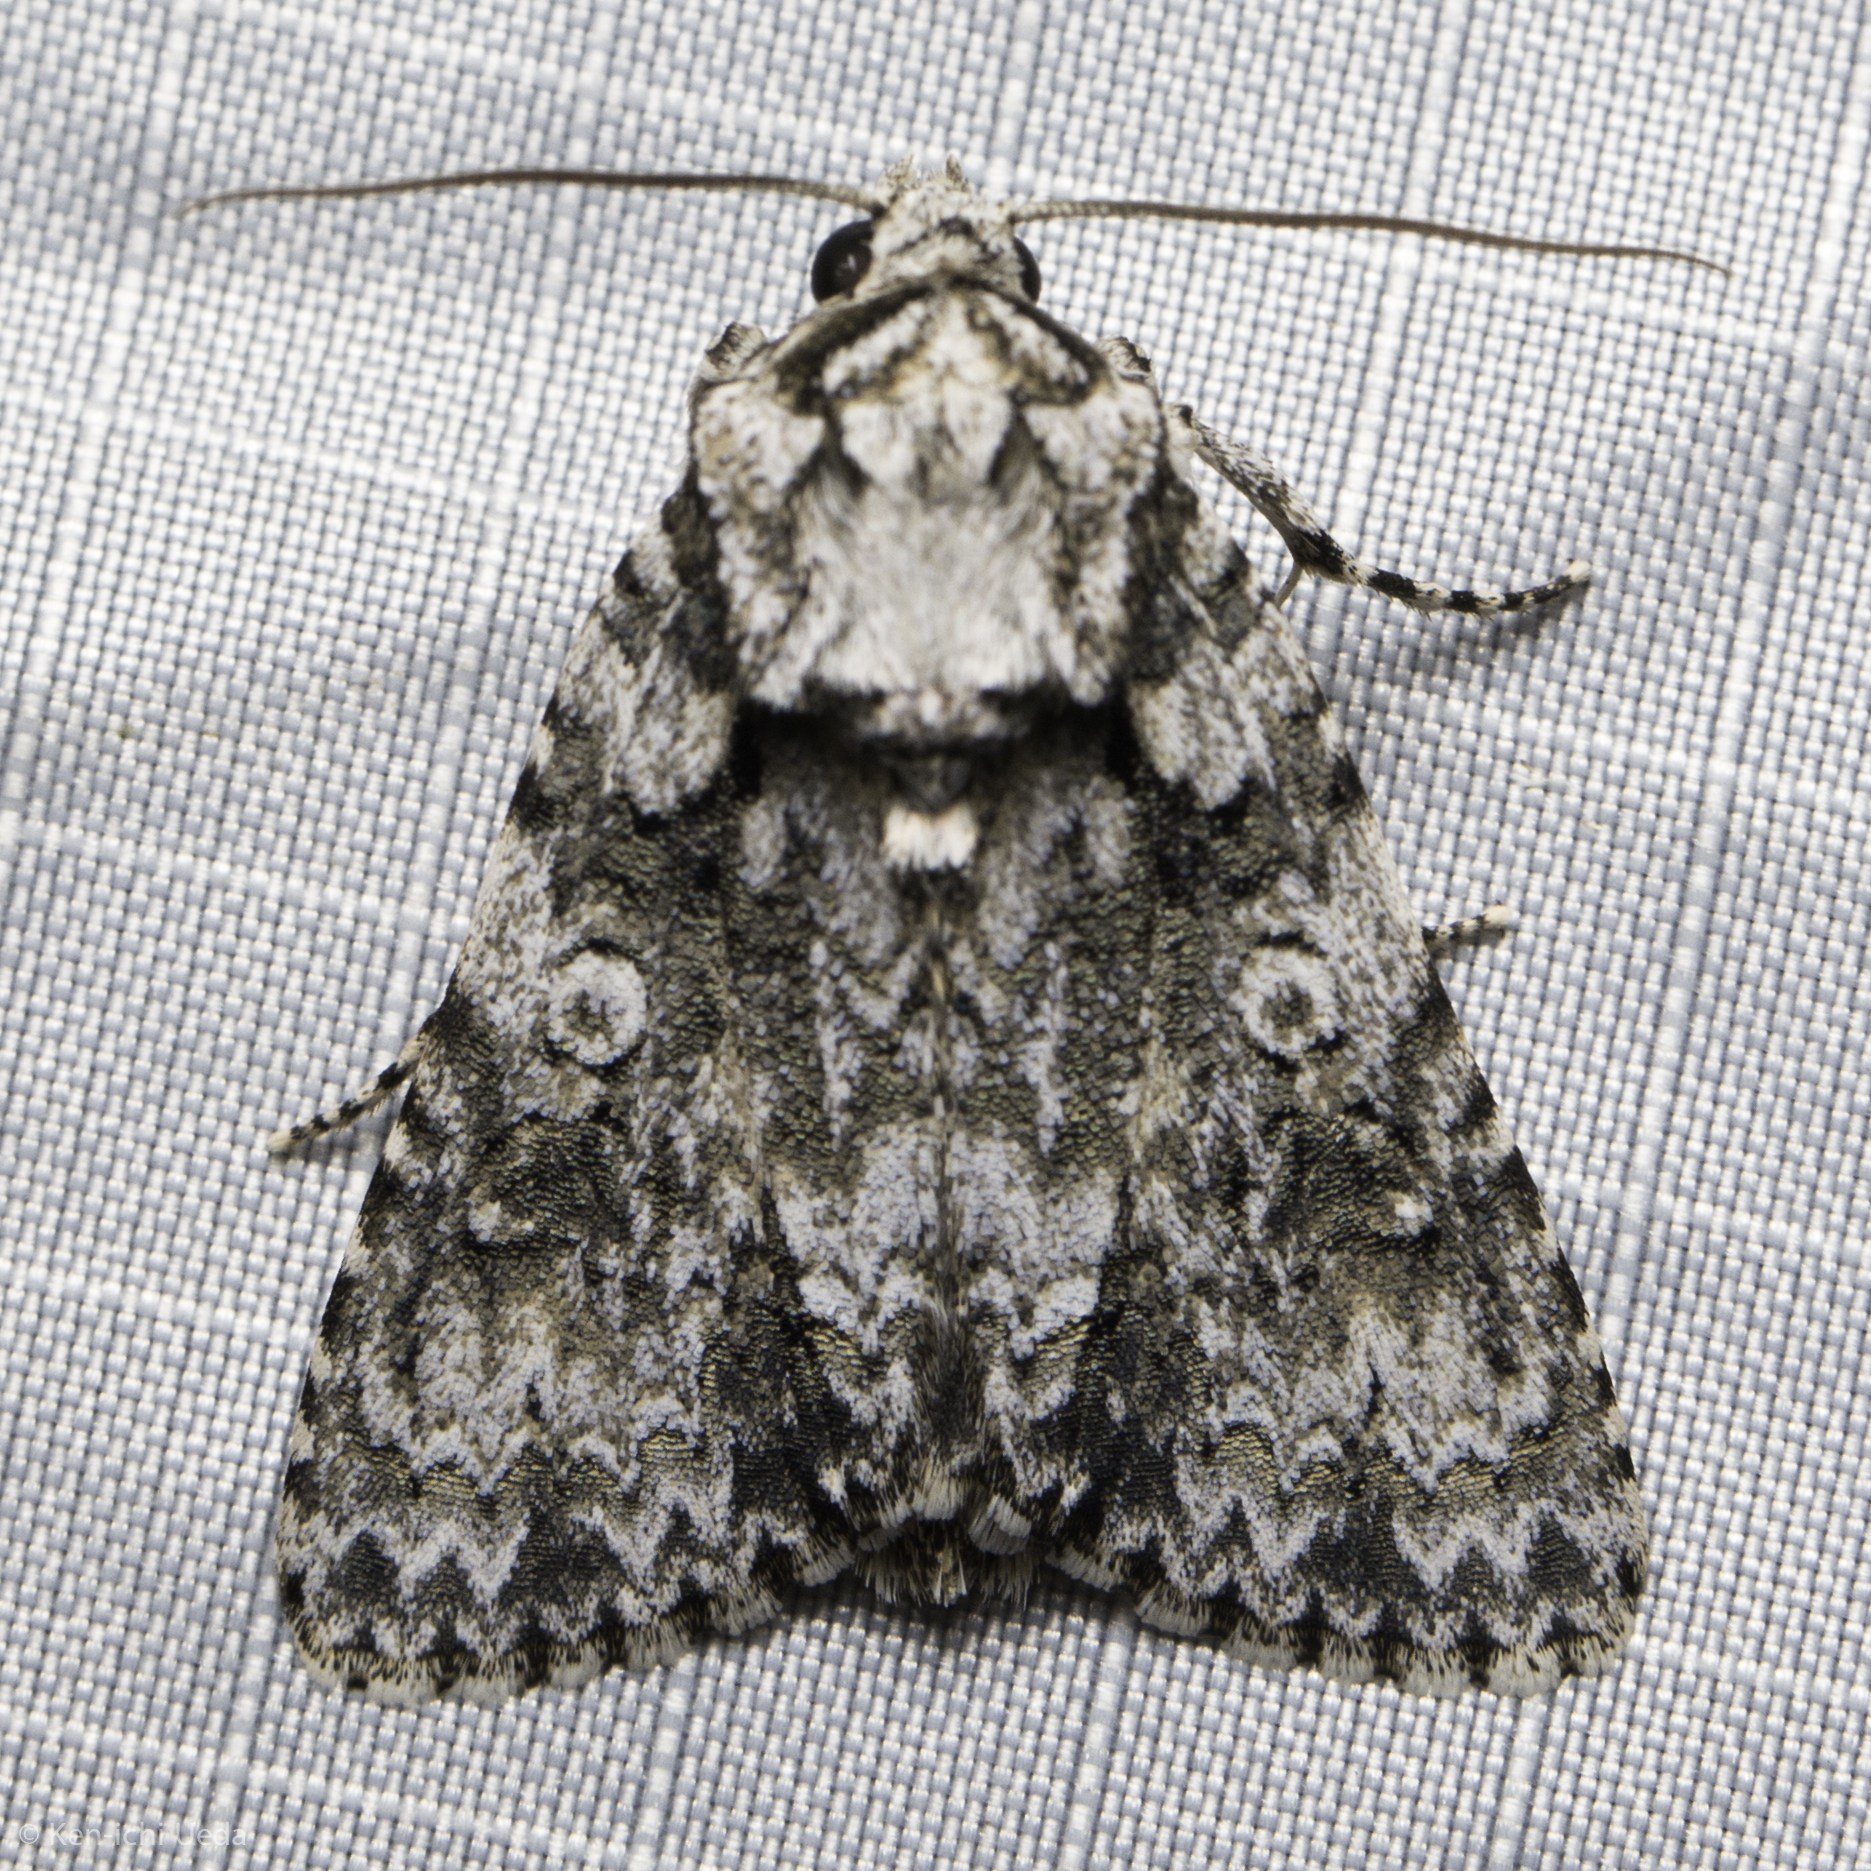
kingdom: Animalia
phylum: Arthropoda
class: Insecta
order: Lepidoptera
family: Noctuidae
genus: Acronicta
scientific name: Acronicta marmorata
